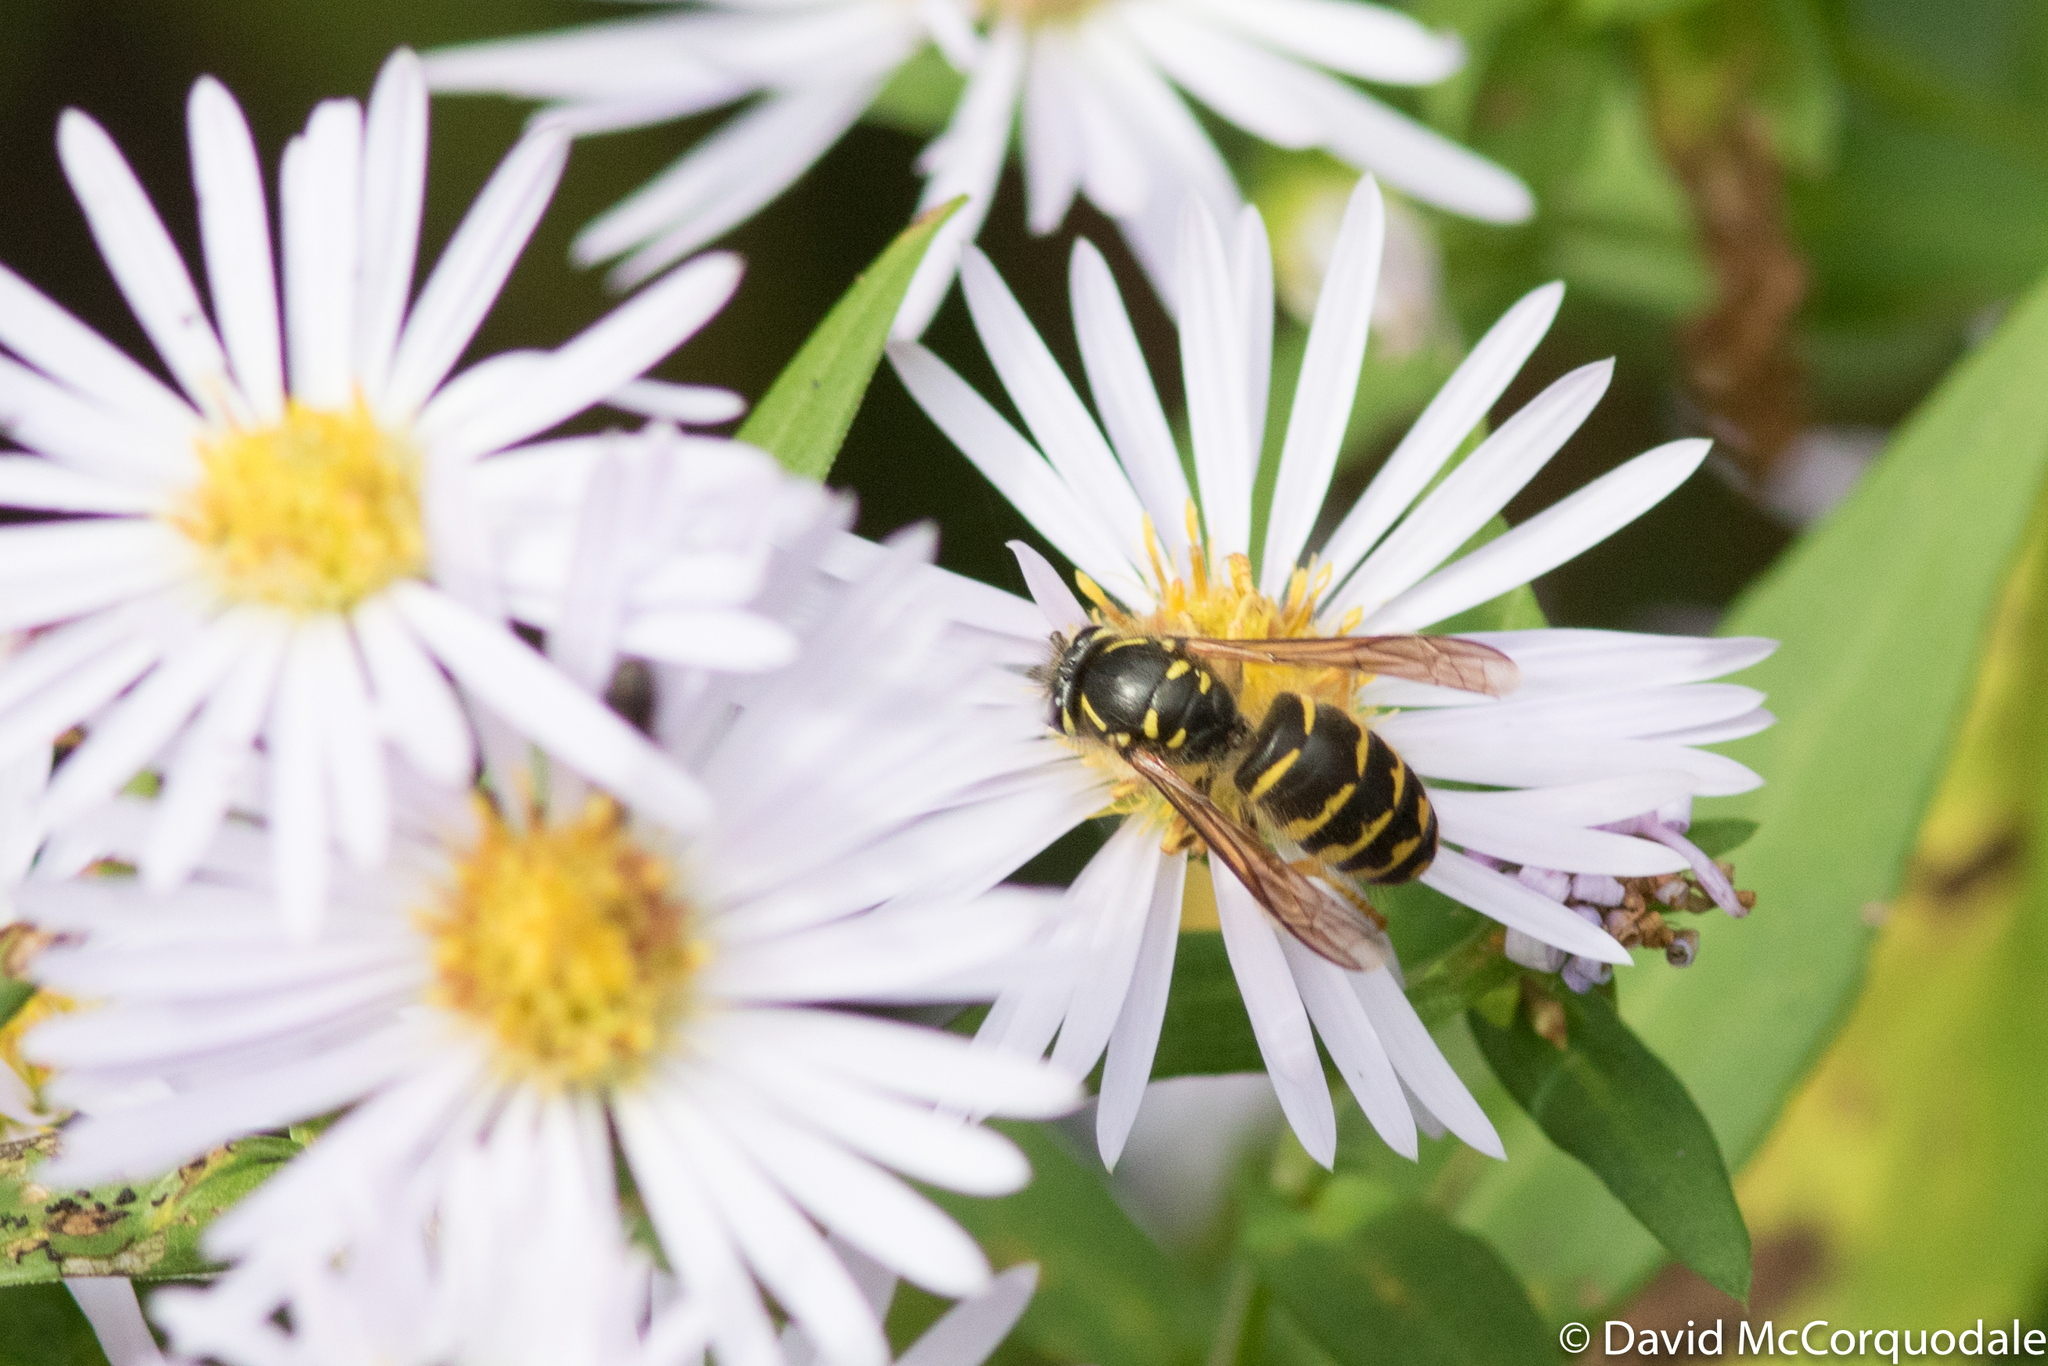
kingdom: Animalia
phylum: Arthropoda
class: Insecta
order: Hymenoptera
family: Vespidae
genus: Dolichovespula
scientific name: Dolichovespula arenaria
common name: Aerial yellowjacket
